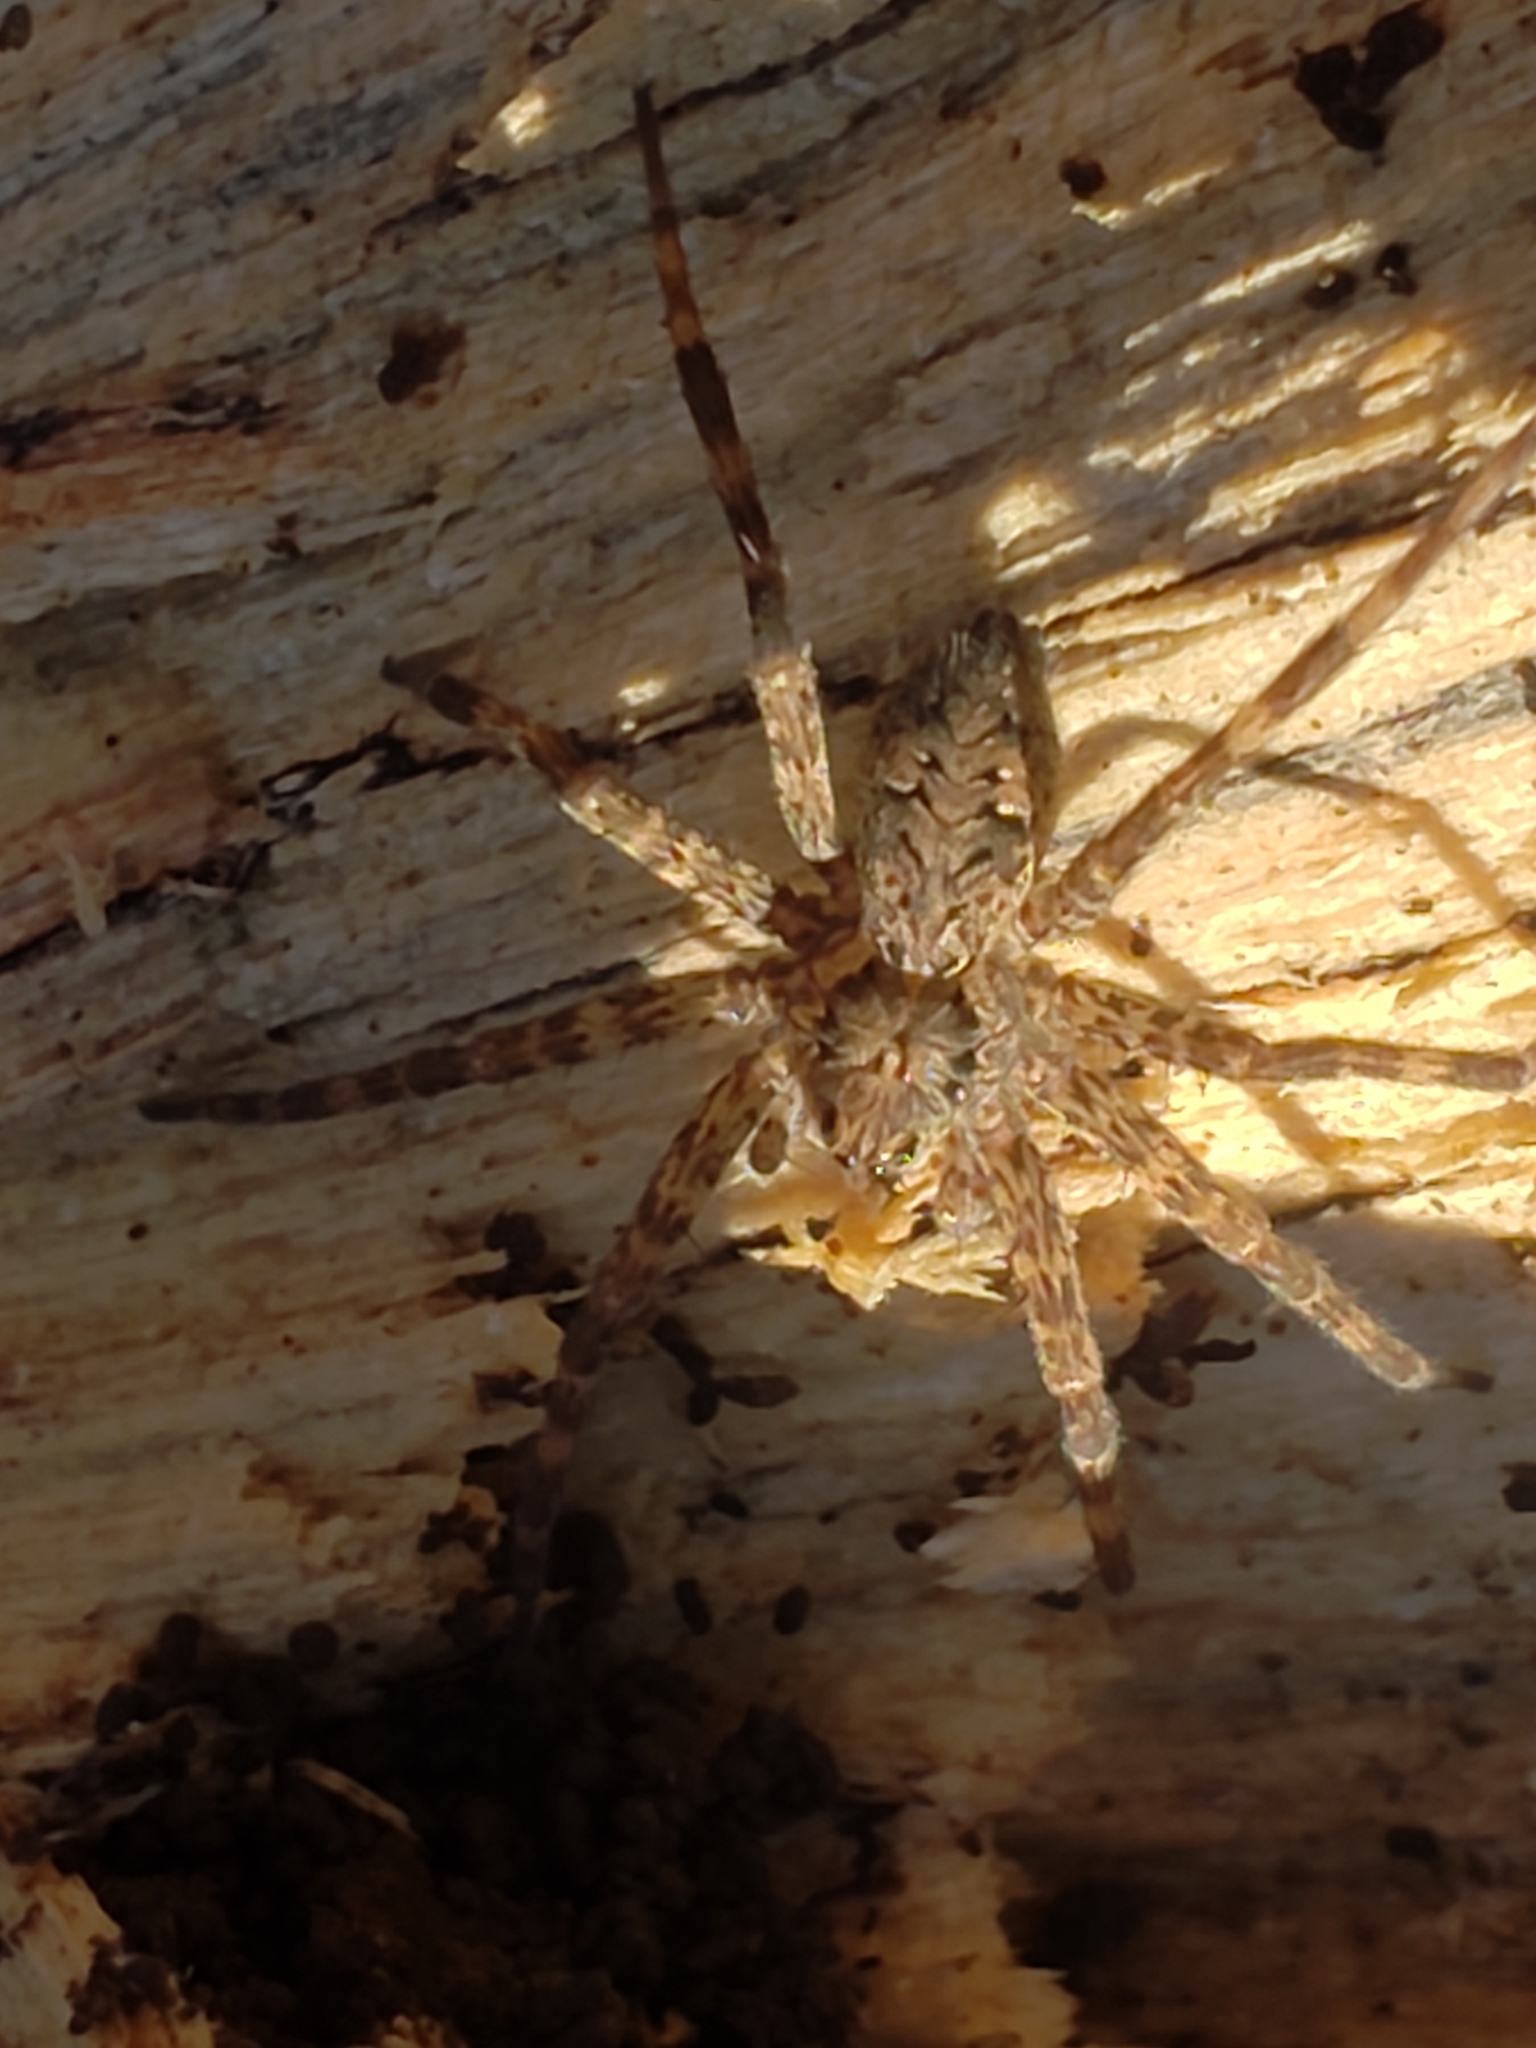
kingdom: Animalia
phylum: Arthropoda
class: Arachnida
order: Araneae
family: Pisauridae
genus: Dolomedes
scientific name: Dolomedes tenebrosus
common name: Dark fishing spider
